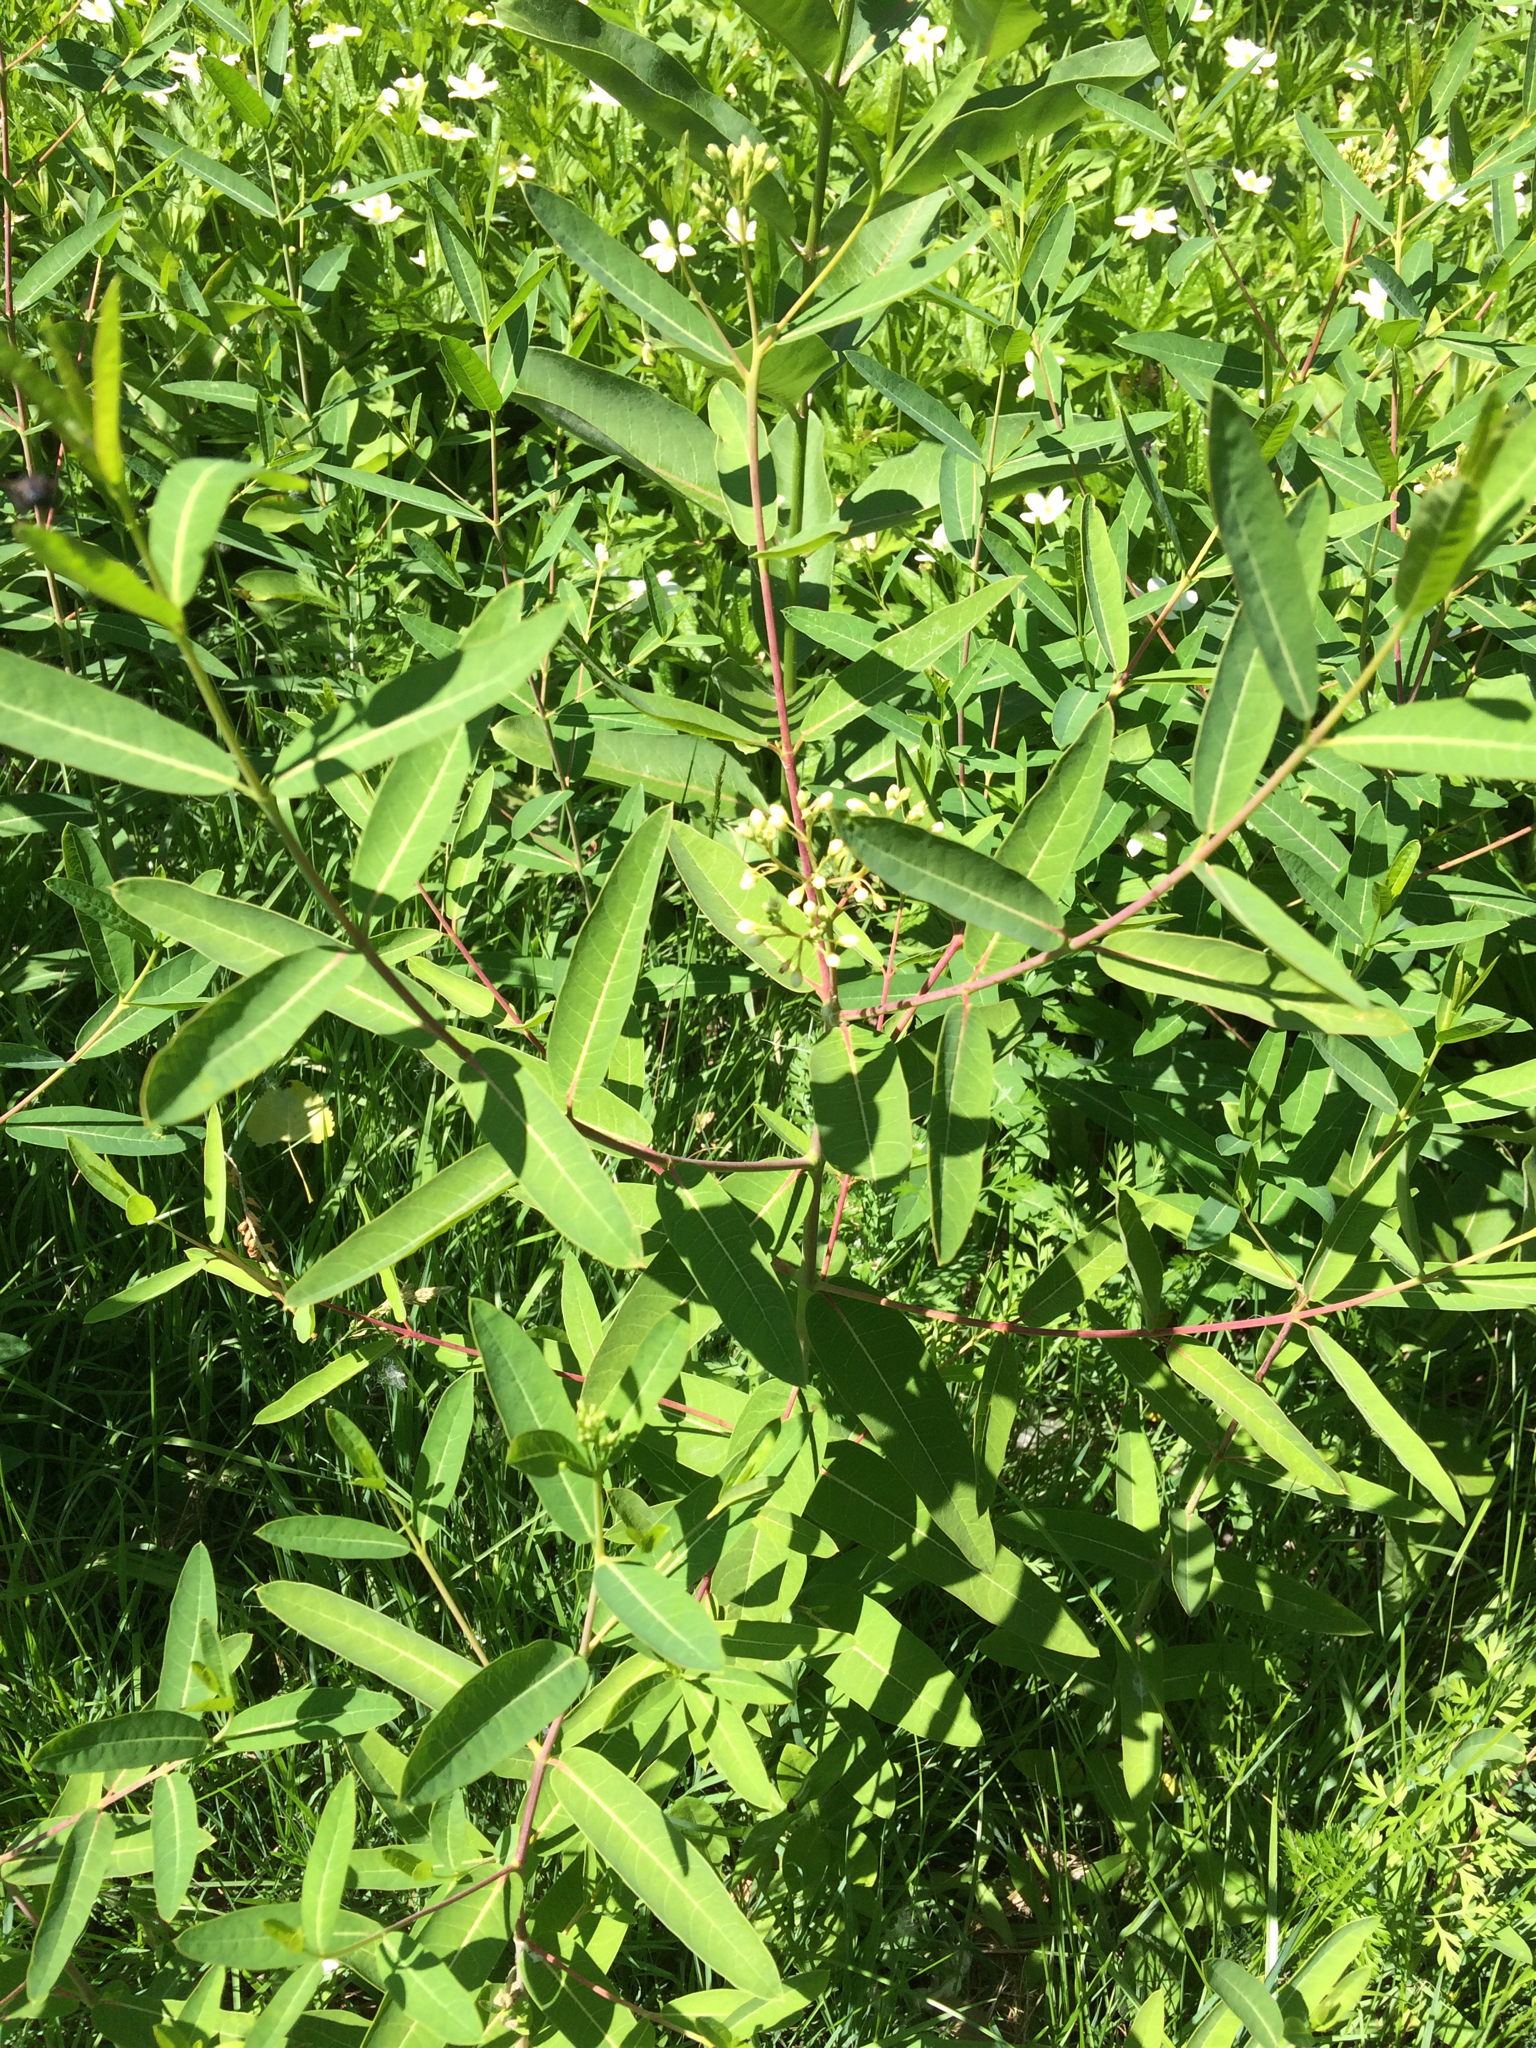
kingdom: Plantae
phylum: Tracheophyta
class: Magnoliopsida
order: Gentianales
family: Apocynaceae
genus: Apocynum
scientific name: Apocynum cannabinum
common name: Hemp dogbane
